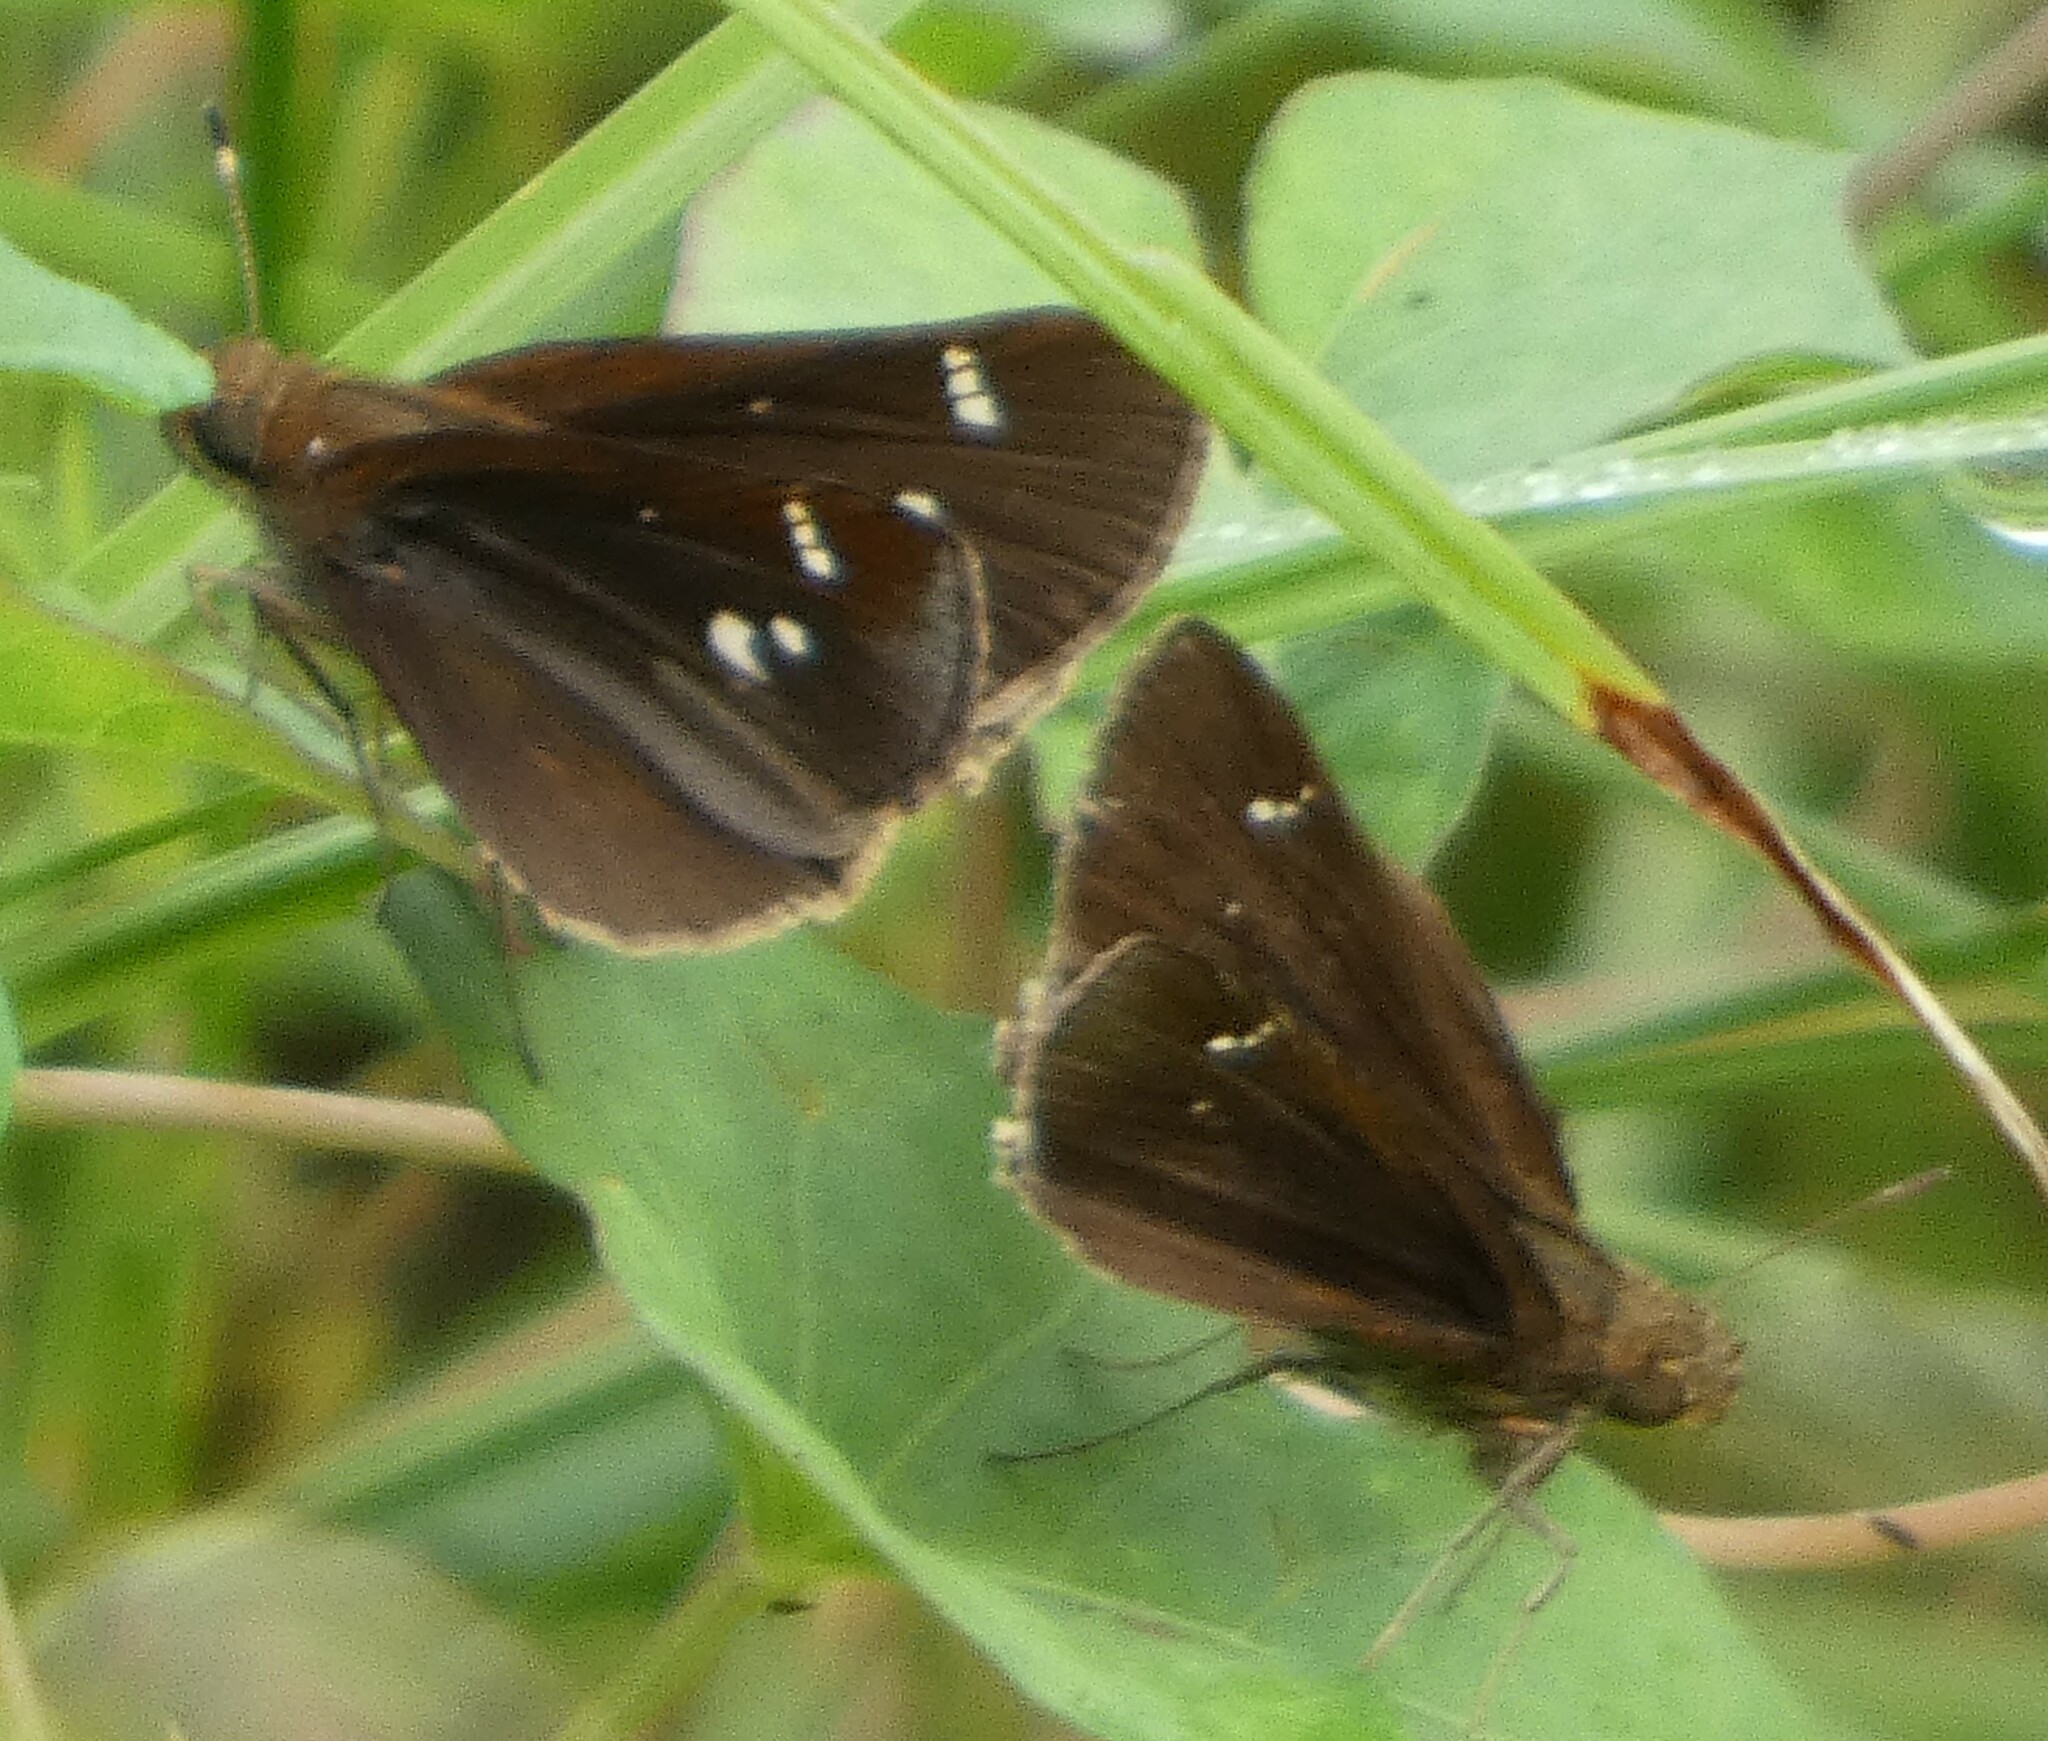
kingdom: Animalia
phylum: Arthropoda
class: Insecta
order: Lepidoptera
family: Hesperiidae
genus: Lerema
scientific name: Lerema accius
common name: Clouded skipper
